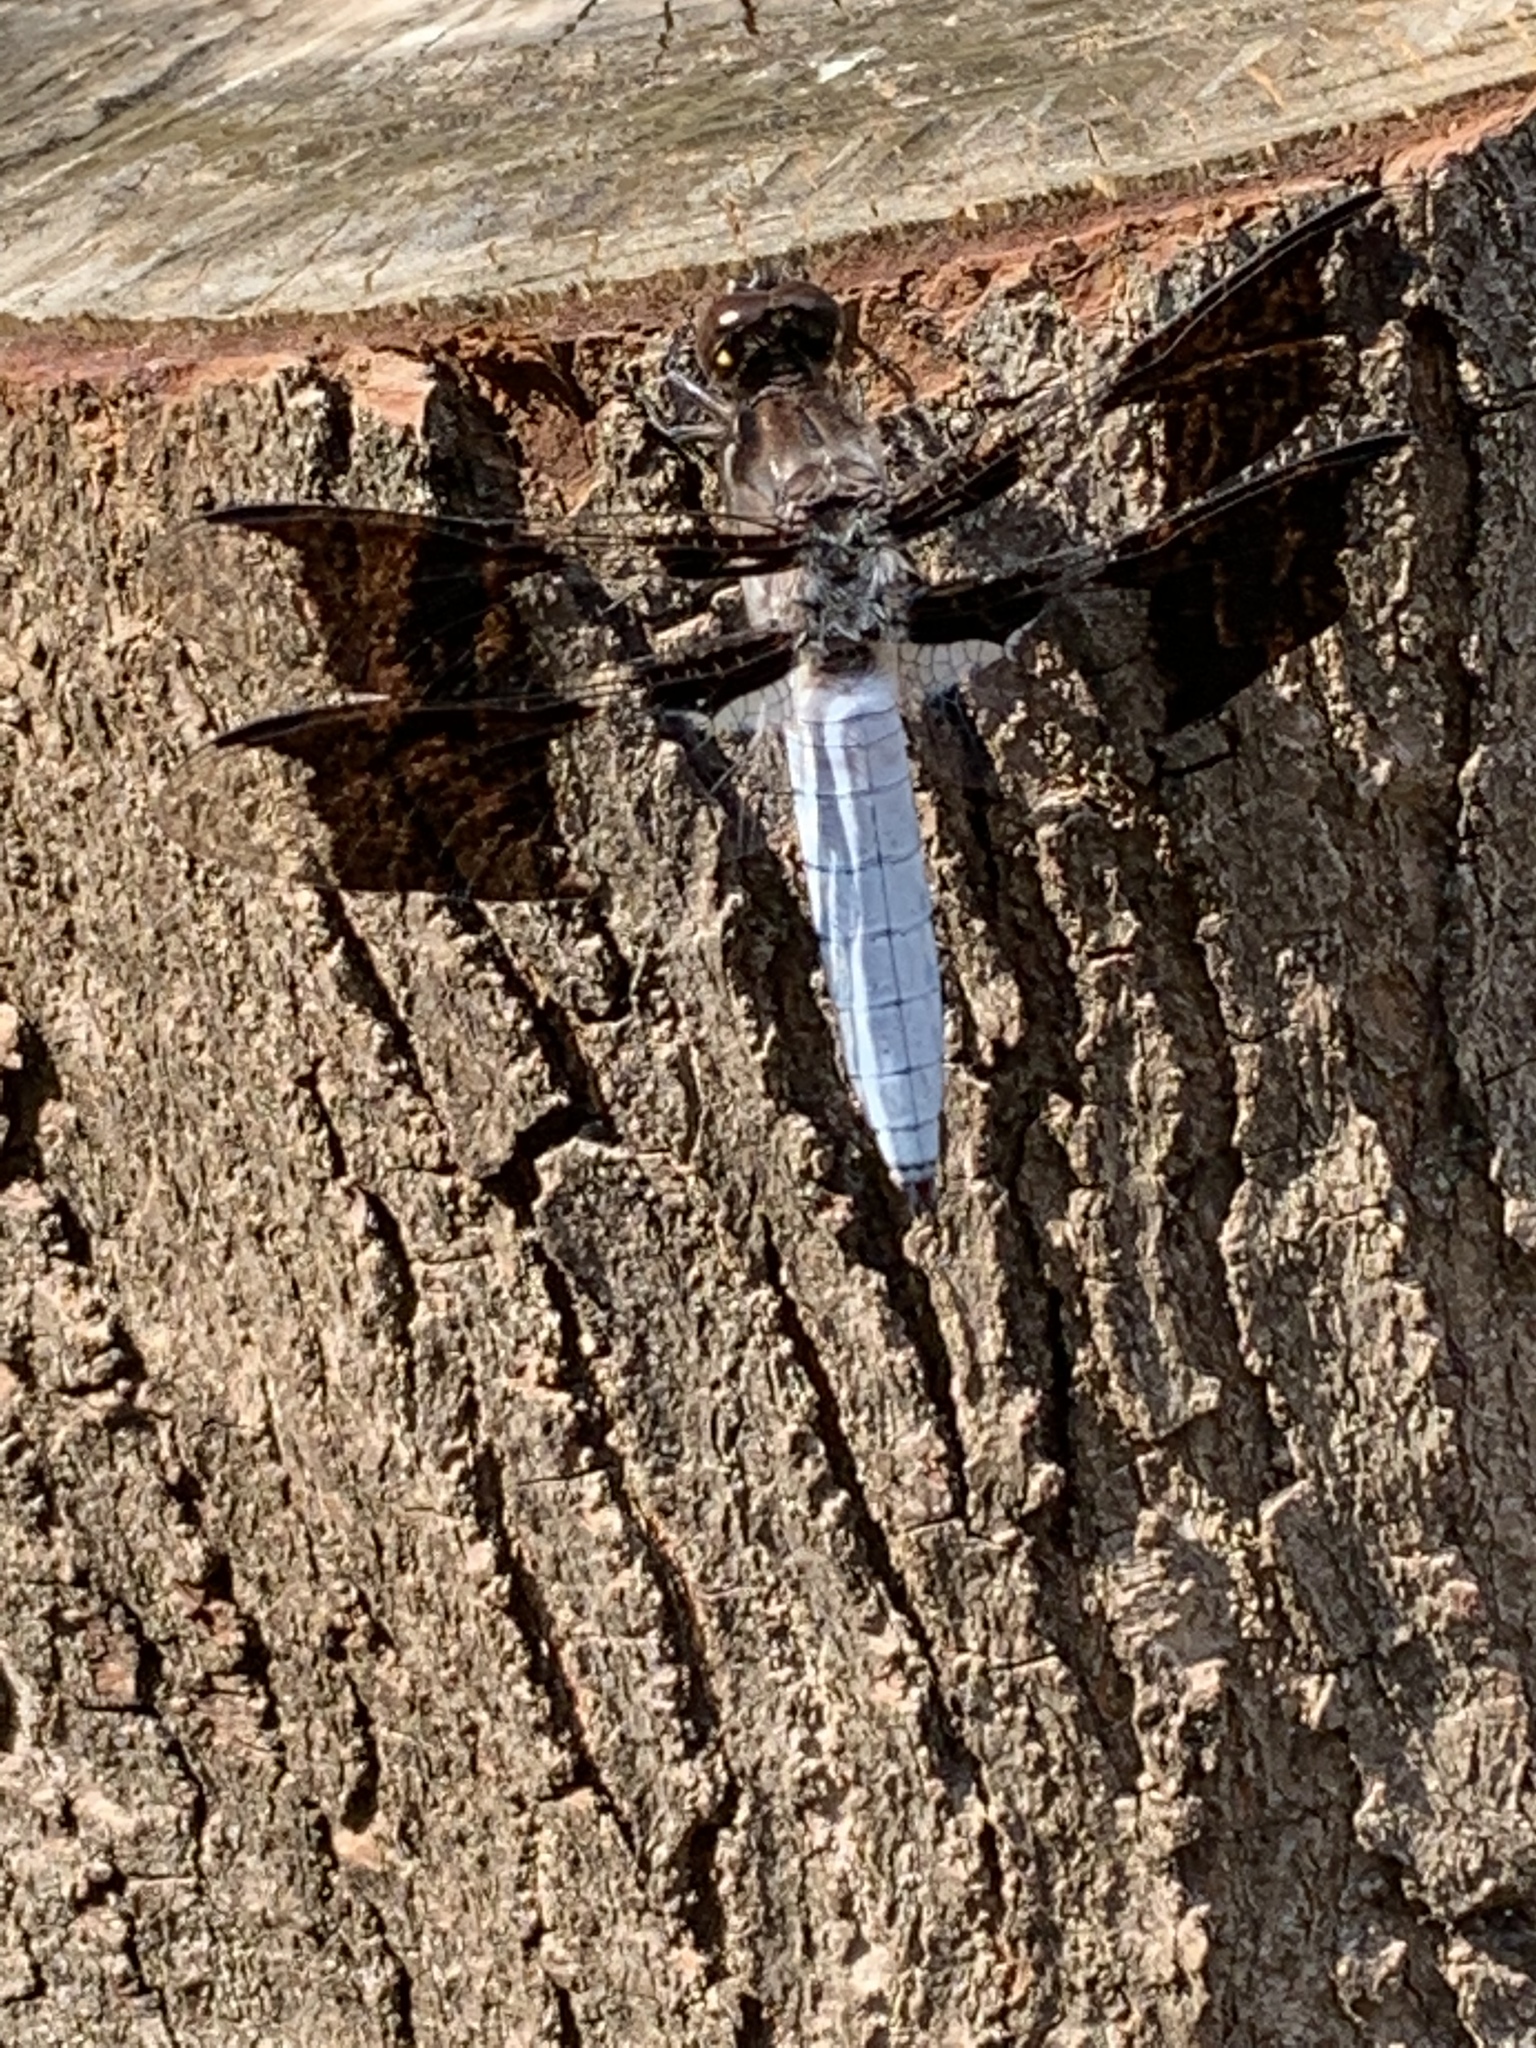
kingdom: Animalia
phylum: Arthropoda
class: Insecta
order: Odonata
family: Libellulidae
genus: Plathemis
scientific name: Plathemis lydia
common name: Common whitetail
